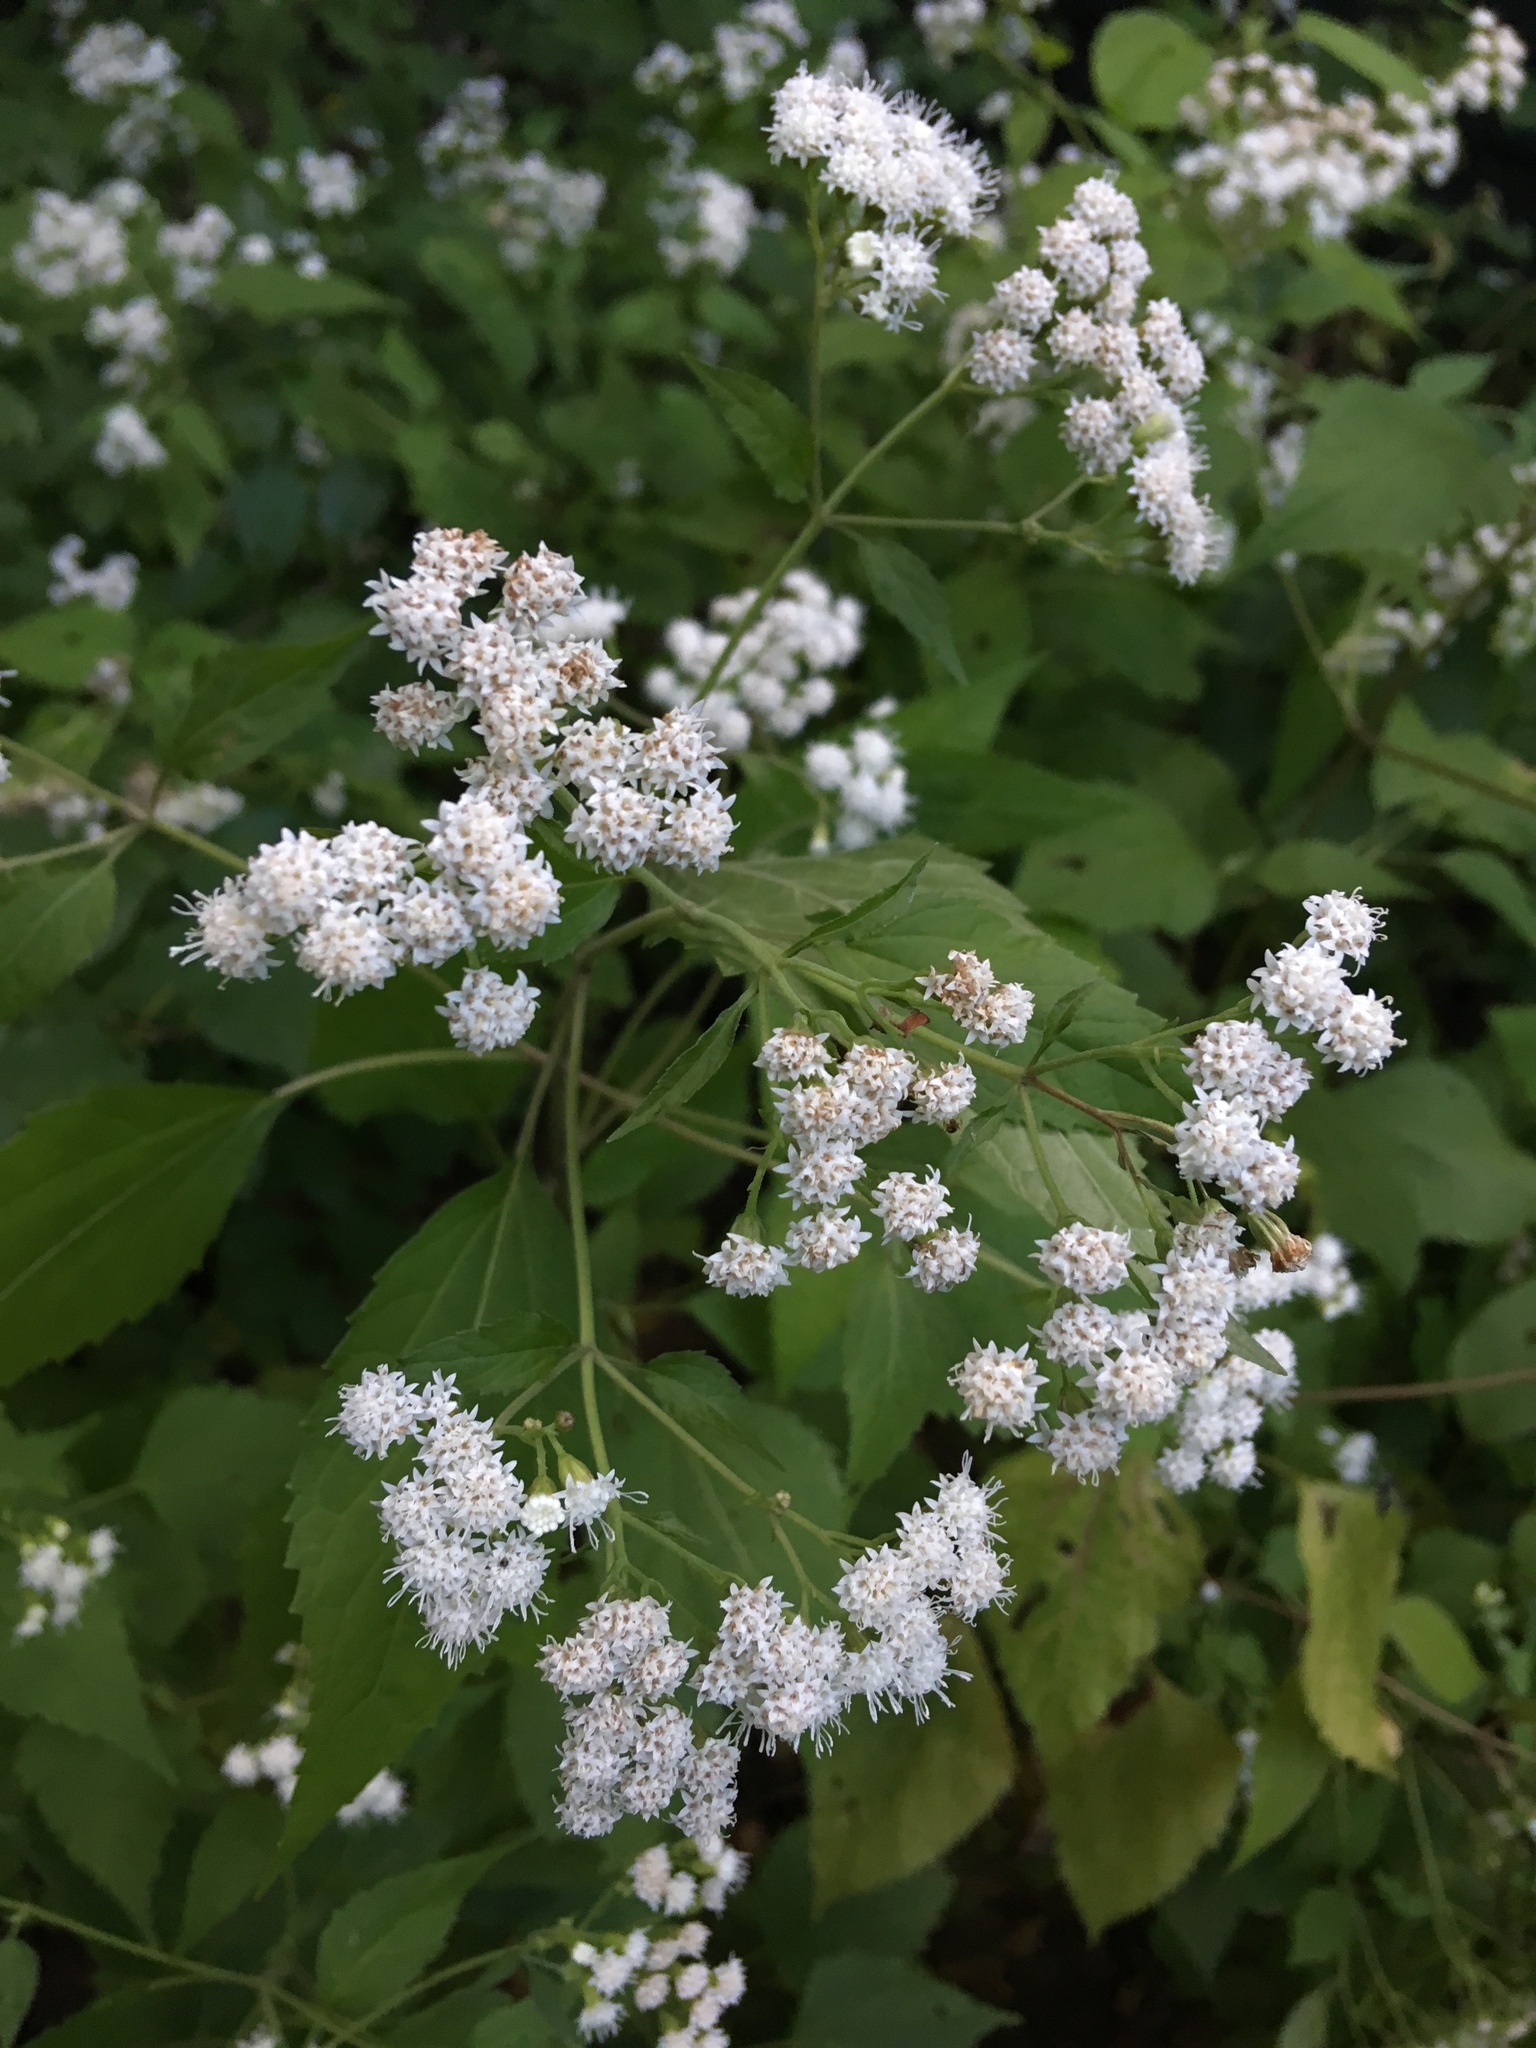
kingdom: Plantae
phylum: Tracheophyta
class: Magnoliopsida
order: Asterales
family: Asteraceae
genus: Ageratina
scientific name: Ageratina altissima
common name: White snakeroot
